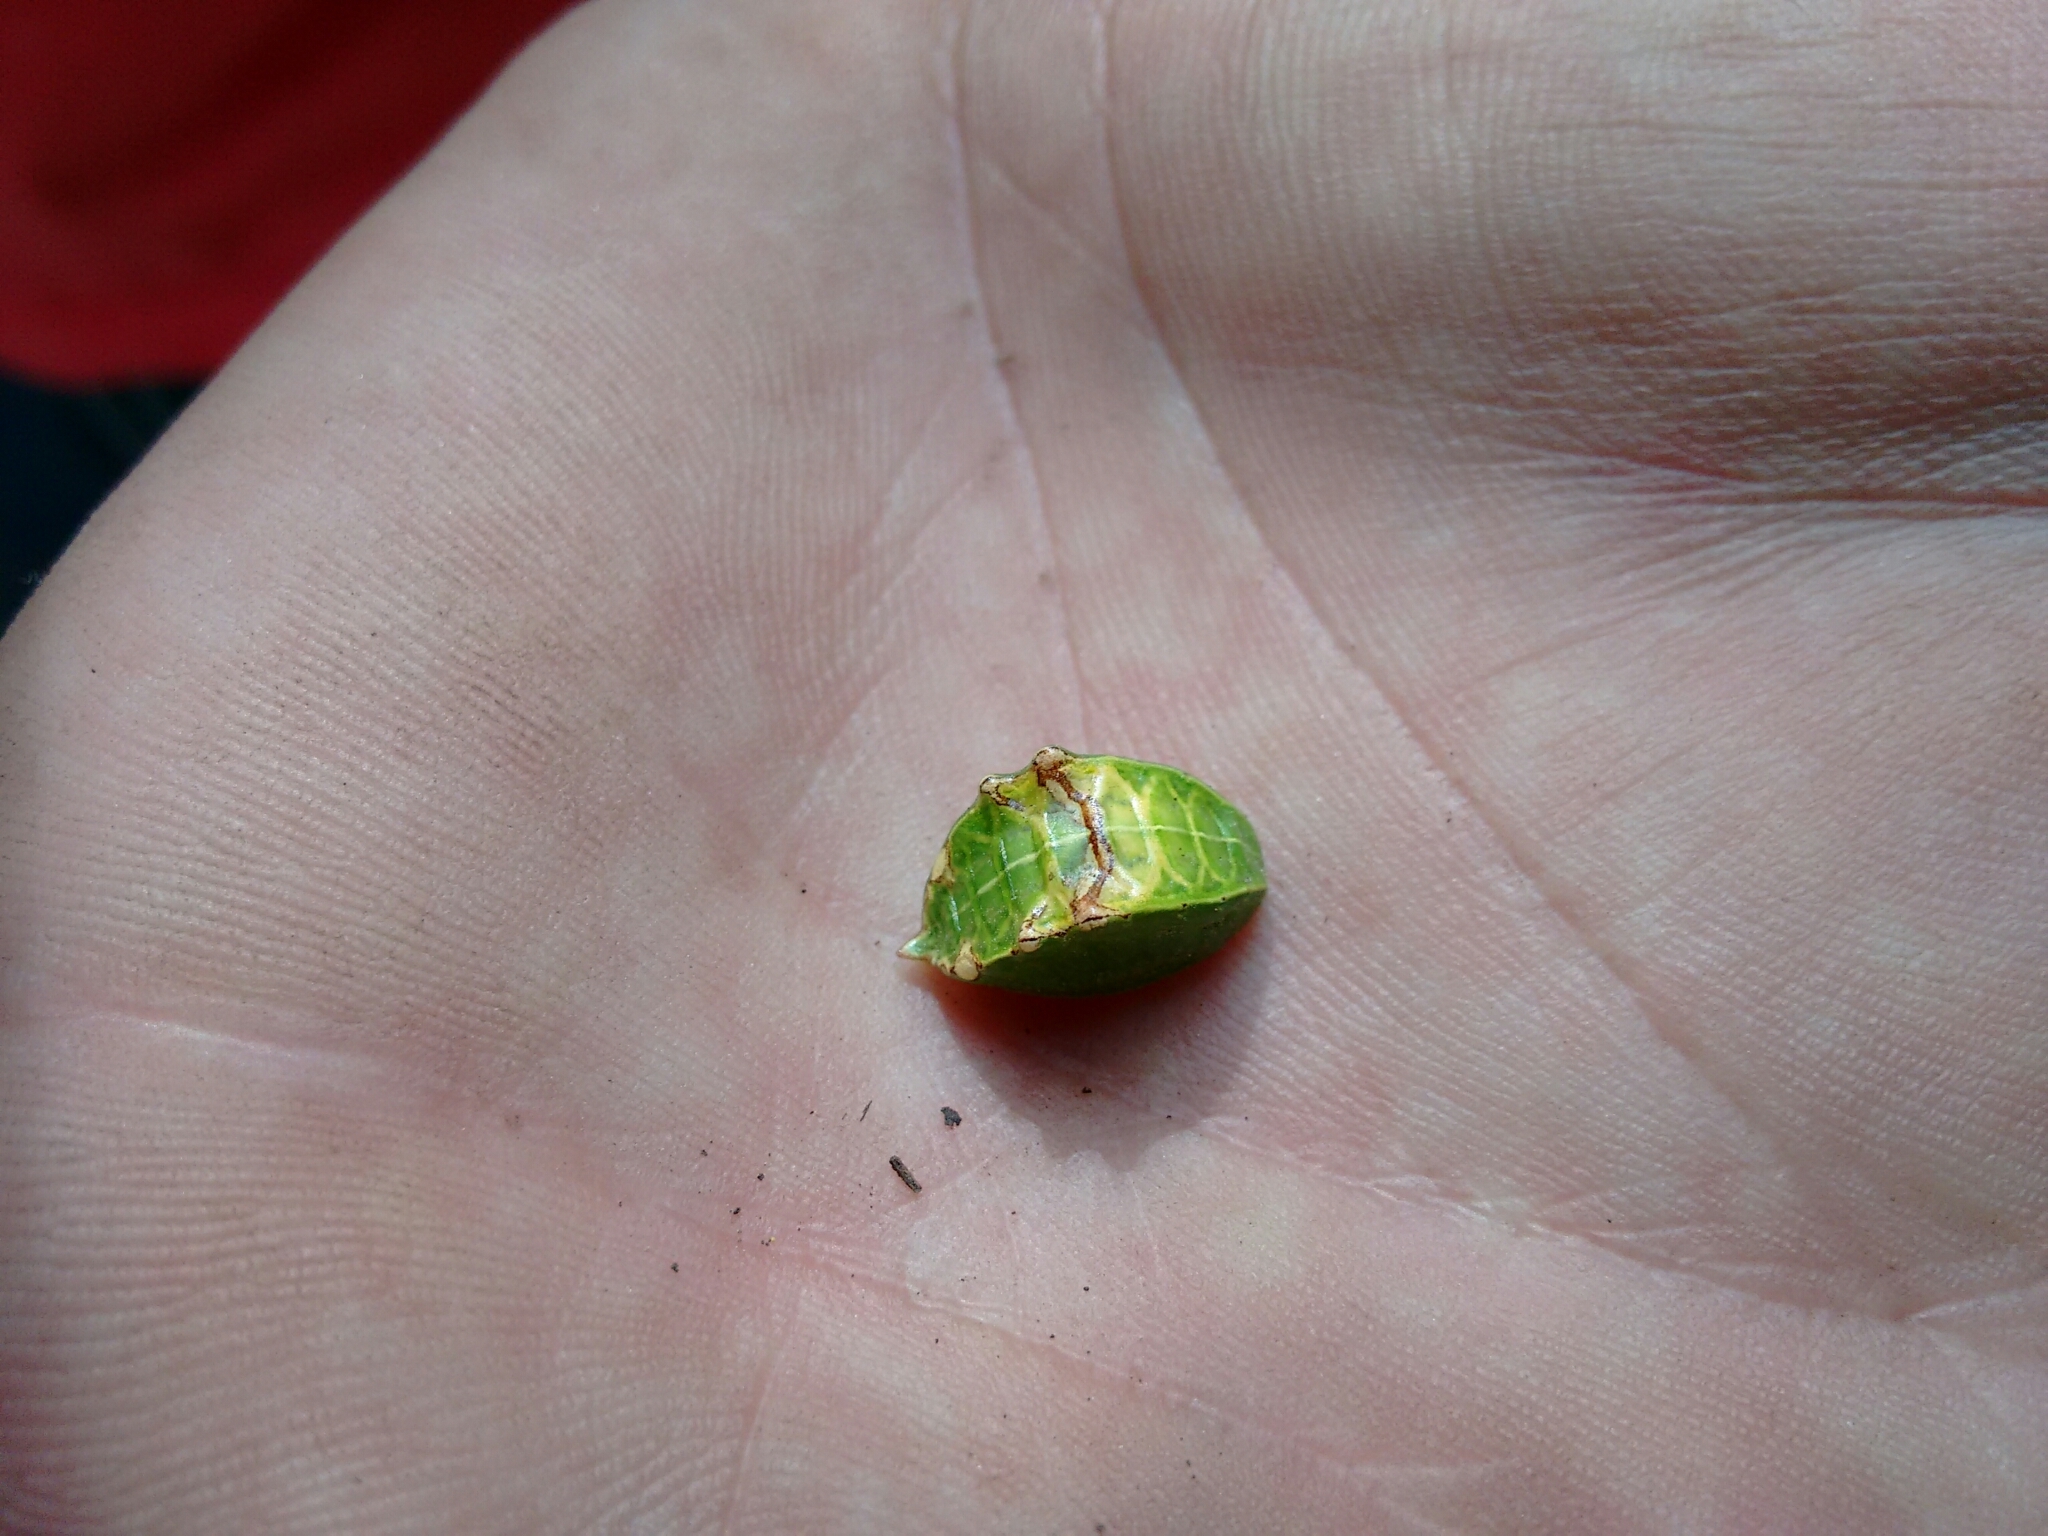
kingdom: Animalia
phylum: Arthropoda
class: Insecta
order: Lepidoptera
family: Limacodidae
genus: Prolimacodes
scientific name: Prolimacodes badia
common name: Skiff moth
